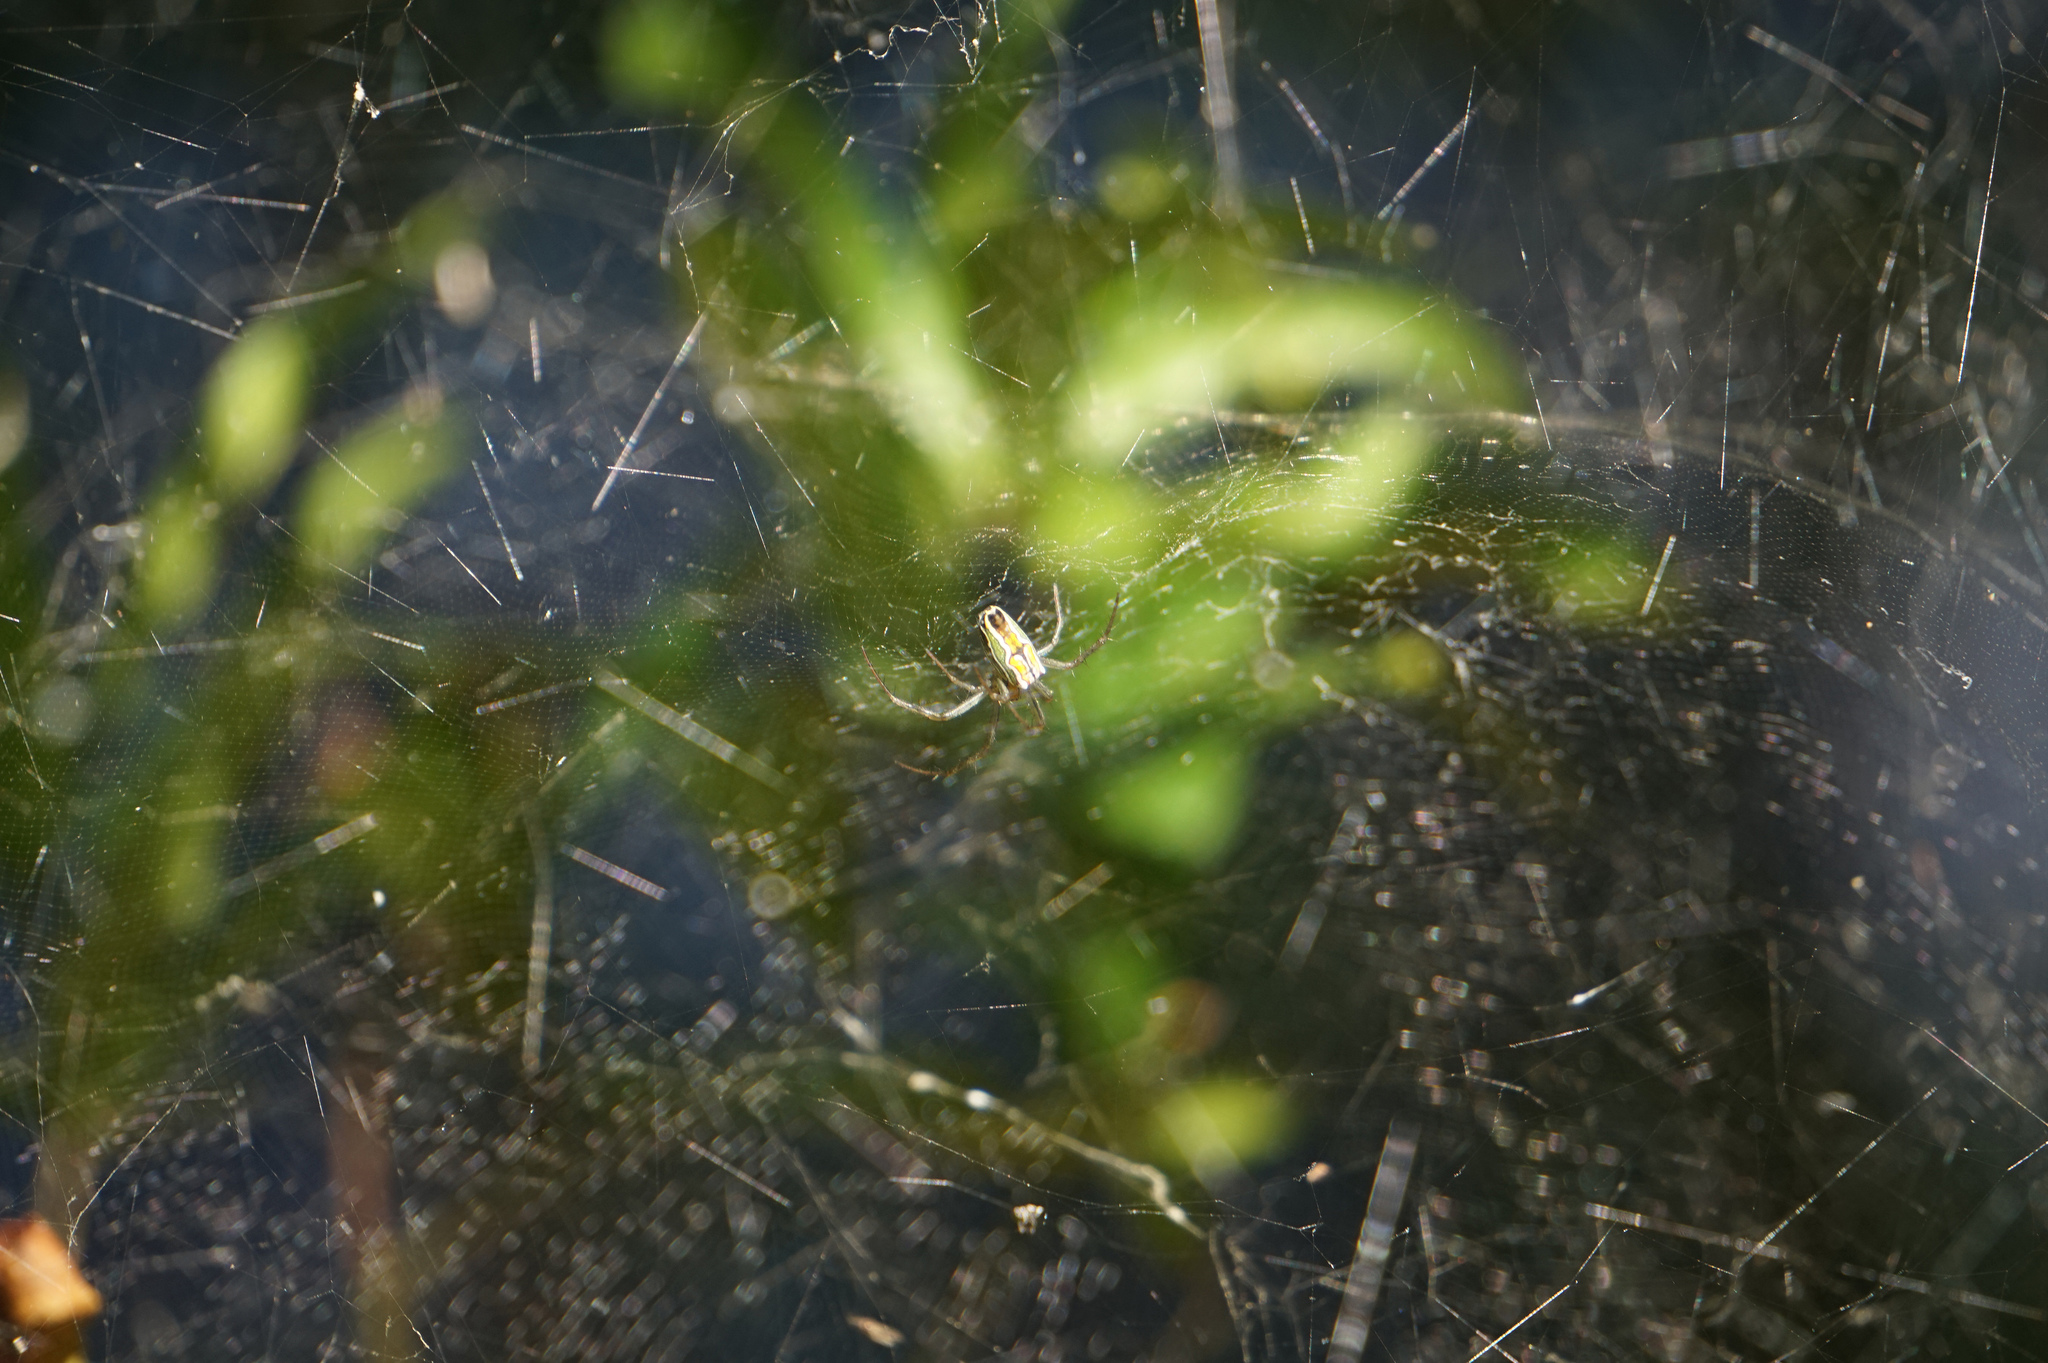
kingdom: Animalia
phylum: Arthropoda
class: Arachnida
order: Araneae
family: Araneidae
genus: Mecynogea
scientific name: Mecynogea lemniscata
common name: Orb weavers
